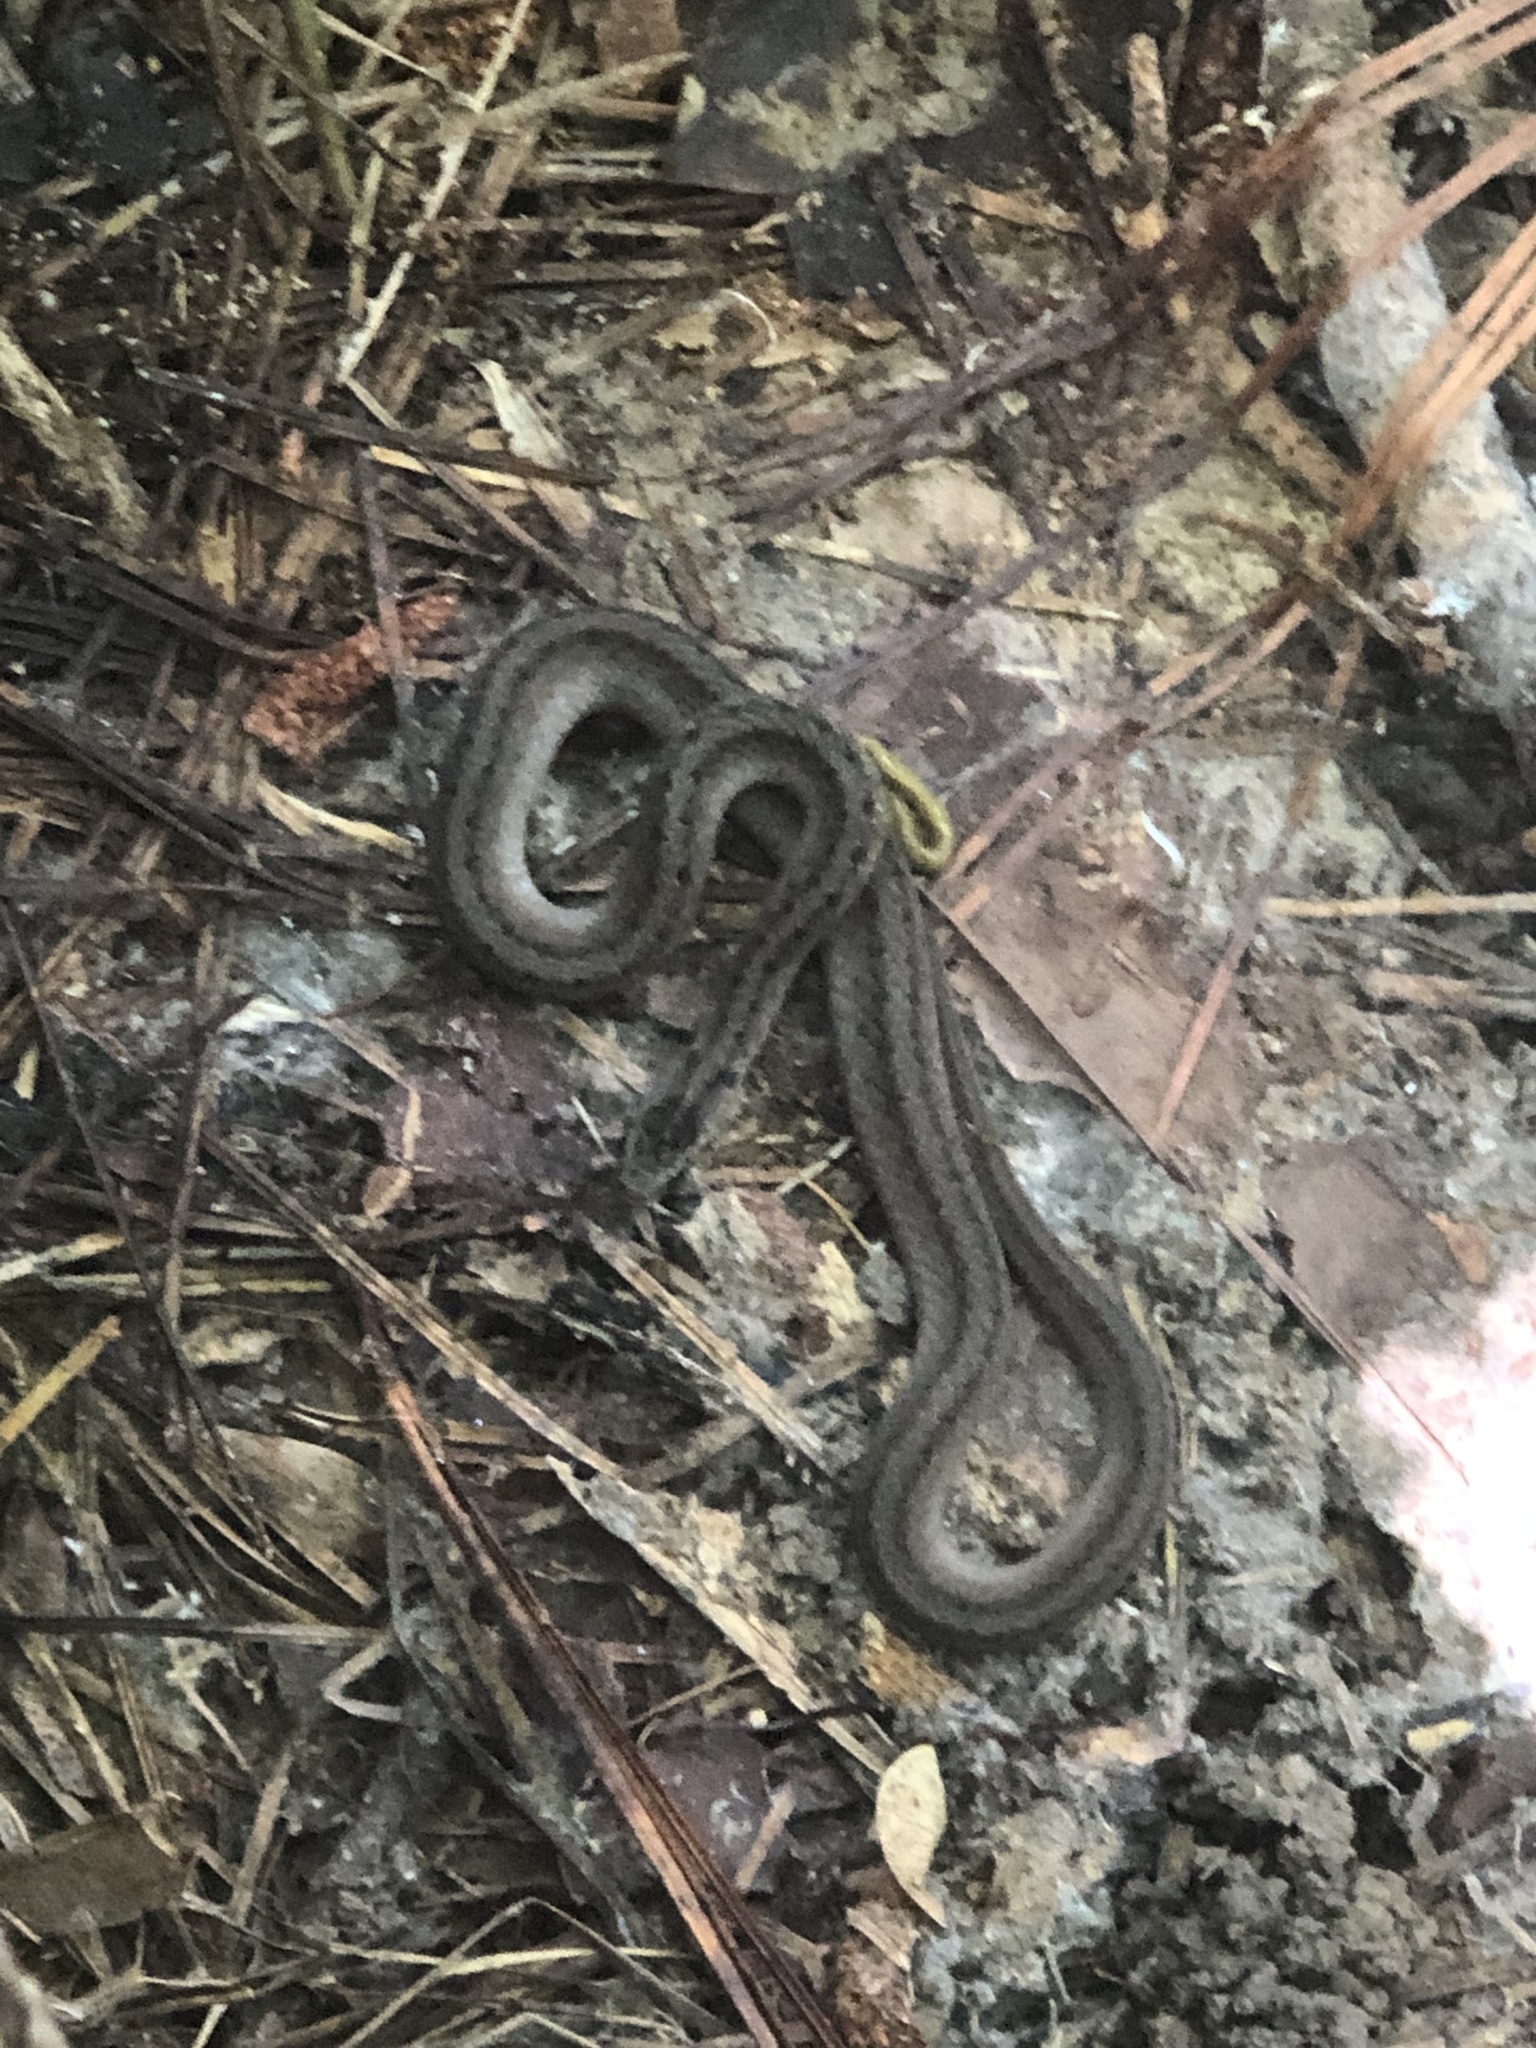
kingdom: Animalia
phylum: Chordata
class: Squamata
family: Colubridae
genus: Storeria
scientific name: Storeria dekayi
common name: (dekay’s) brown snake
